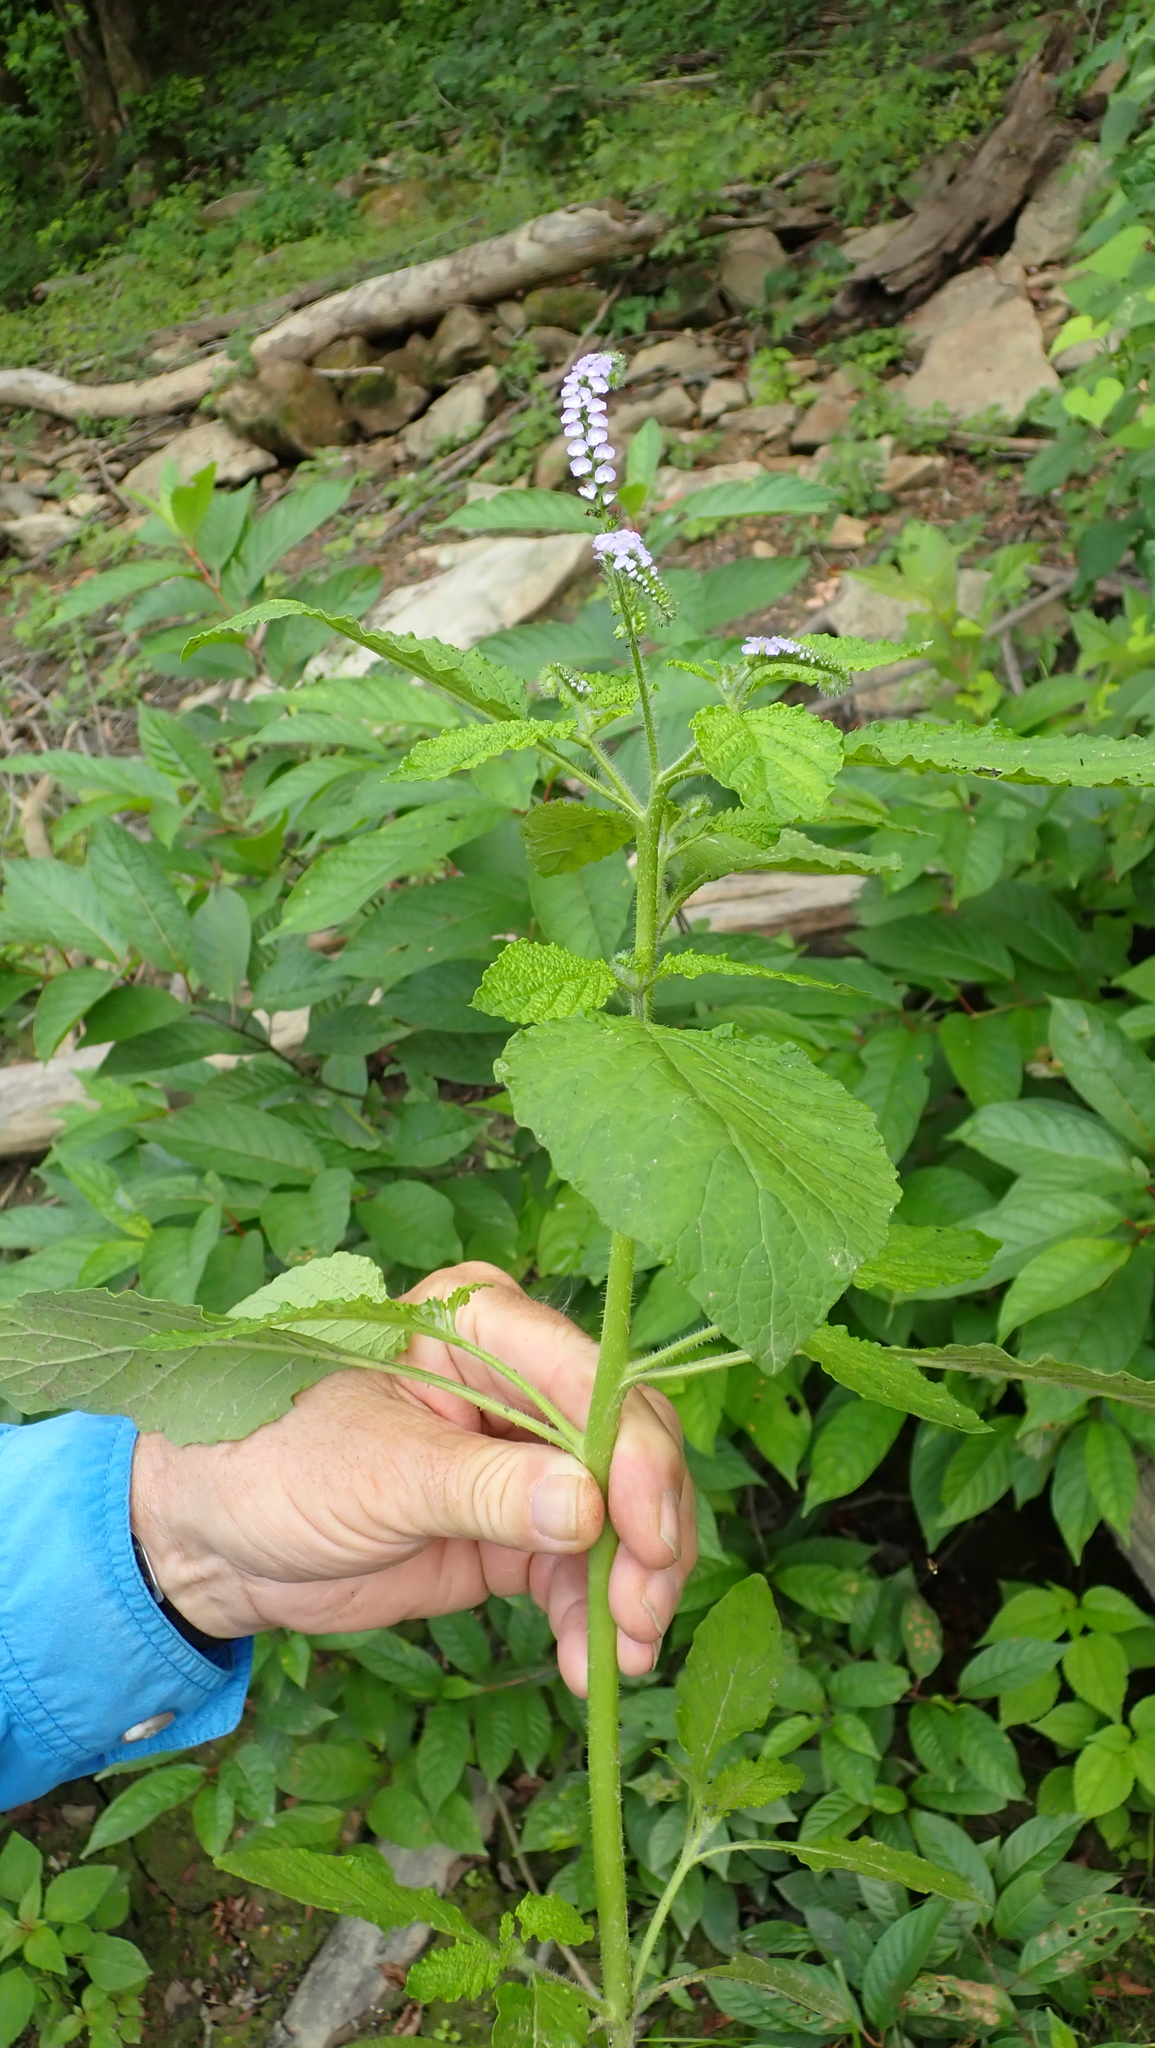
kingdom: Plantae
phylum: Tracheophyta
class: Magnoliopsida
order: Boraginales
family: Heliotropiaceae
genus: Heliotropium
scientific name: Heliotropium indicum
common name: Indian heliotrope
